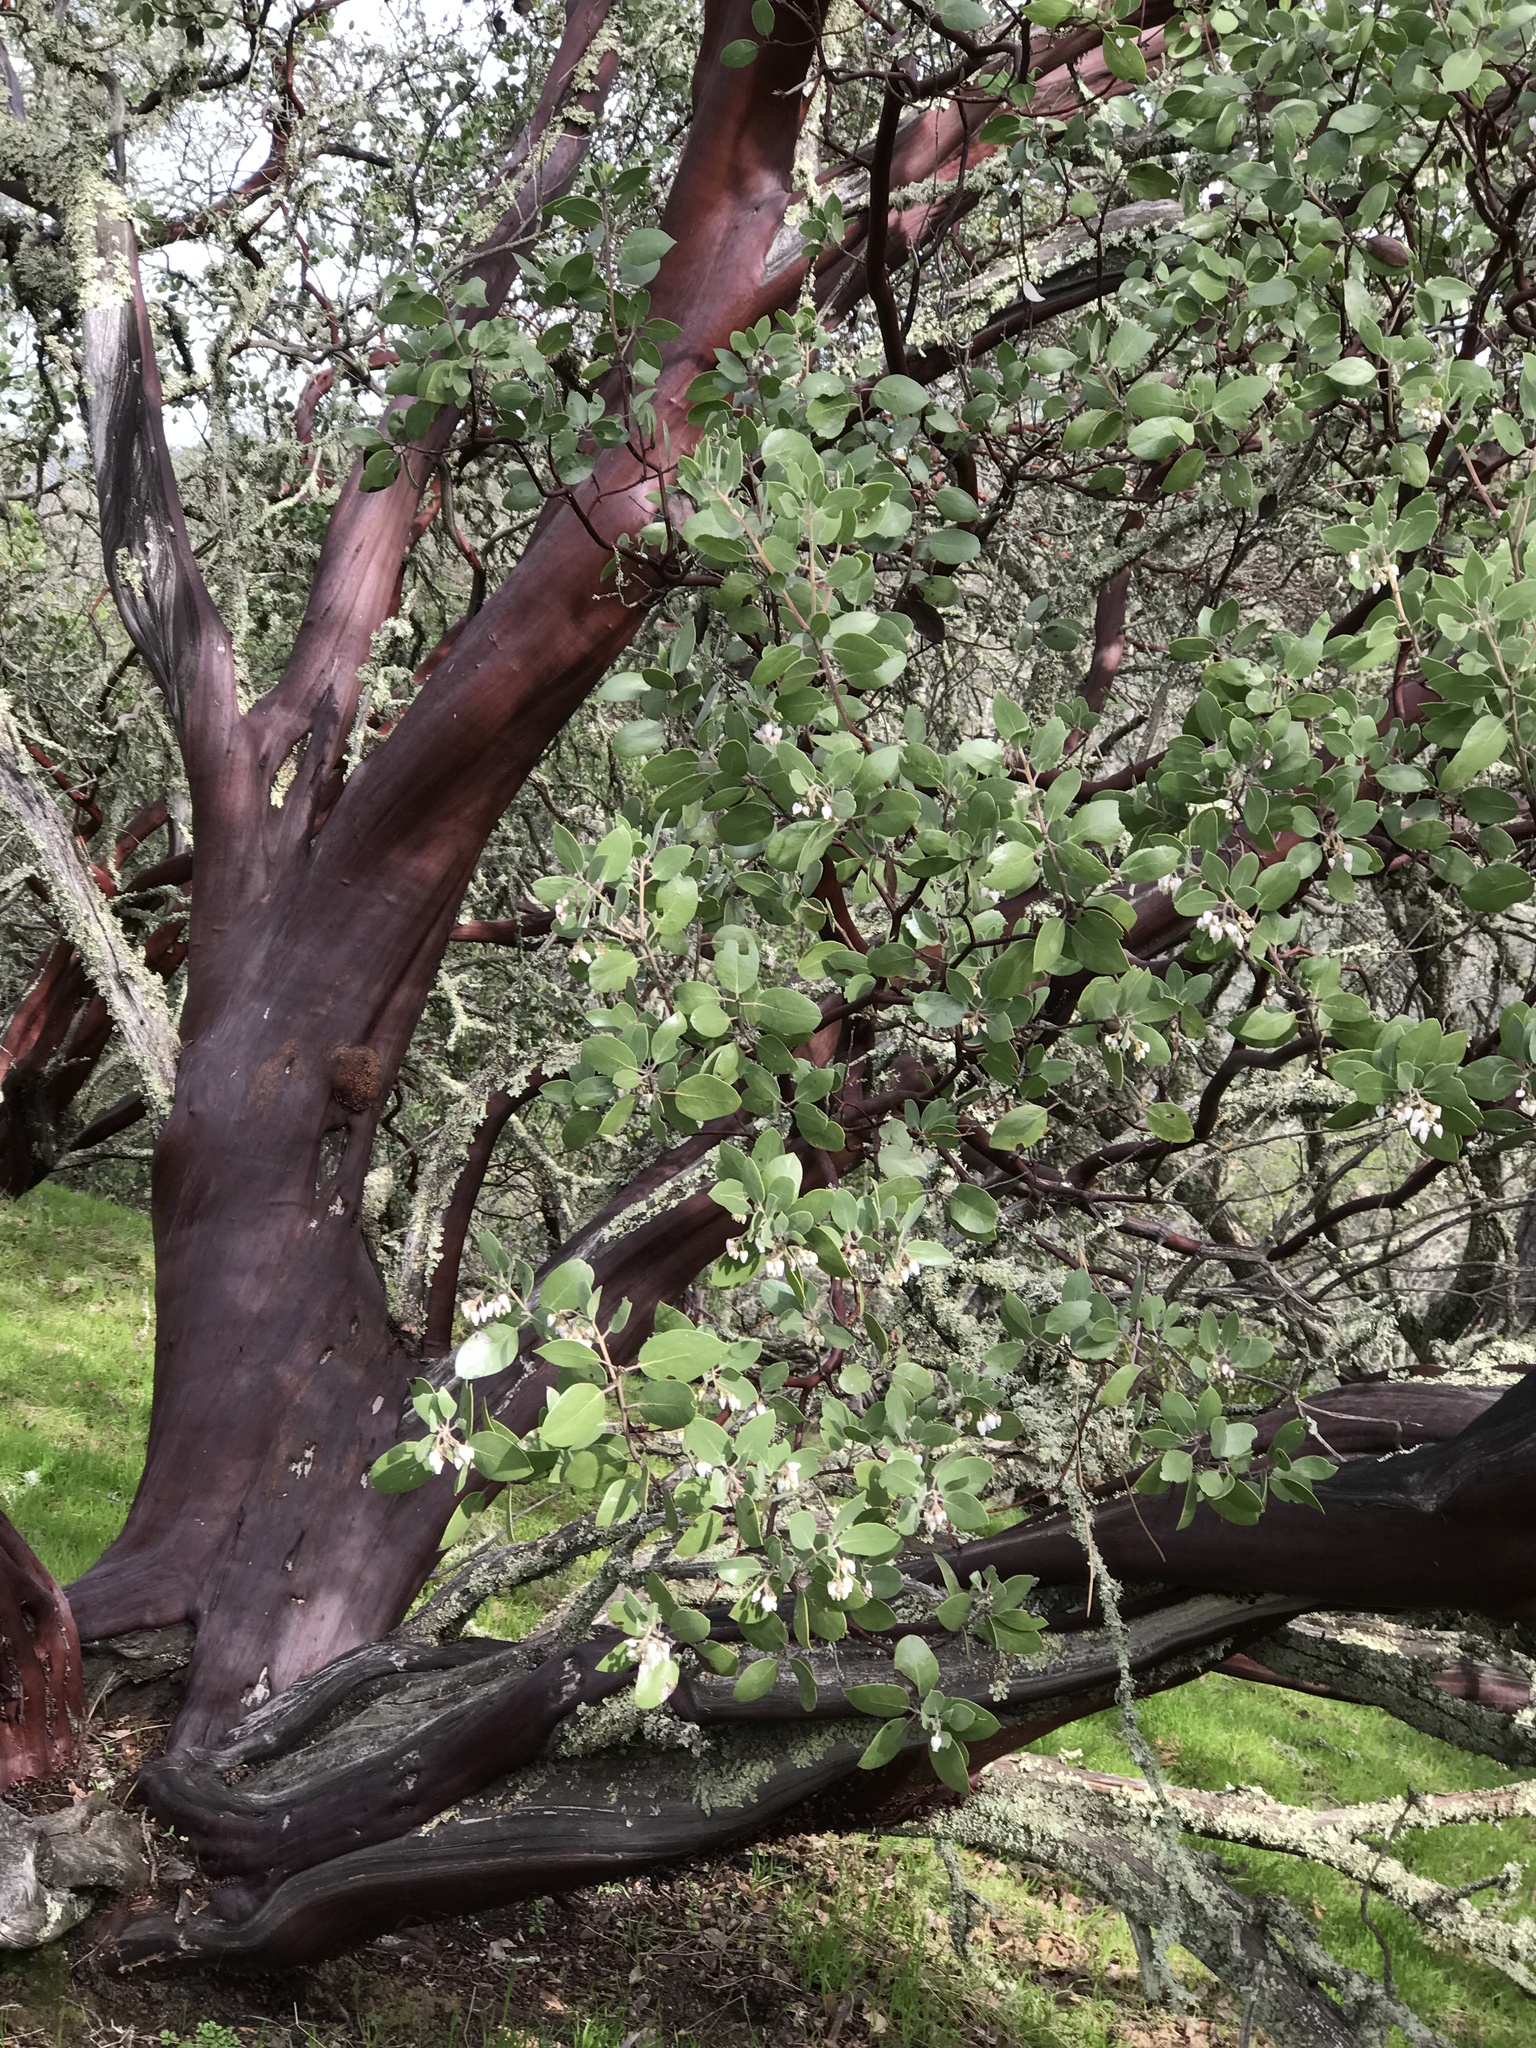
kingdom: Plantae
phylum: Tracheophyta
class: Magnoliopsida
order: Ericales
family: Ericaceae
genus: Arctostaphylos
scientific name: Arctostaphylos manzanita
